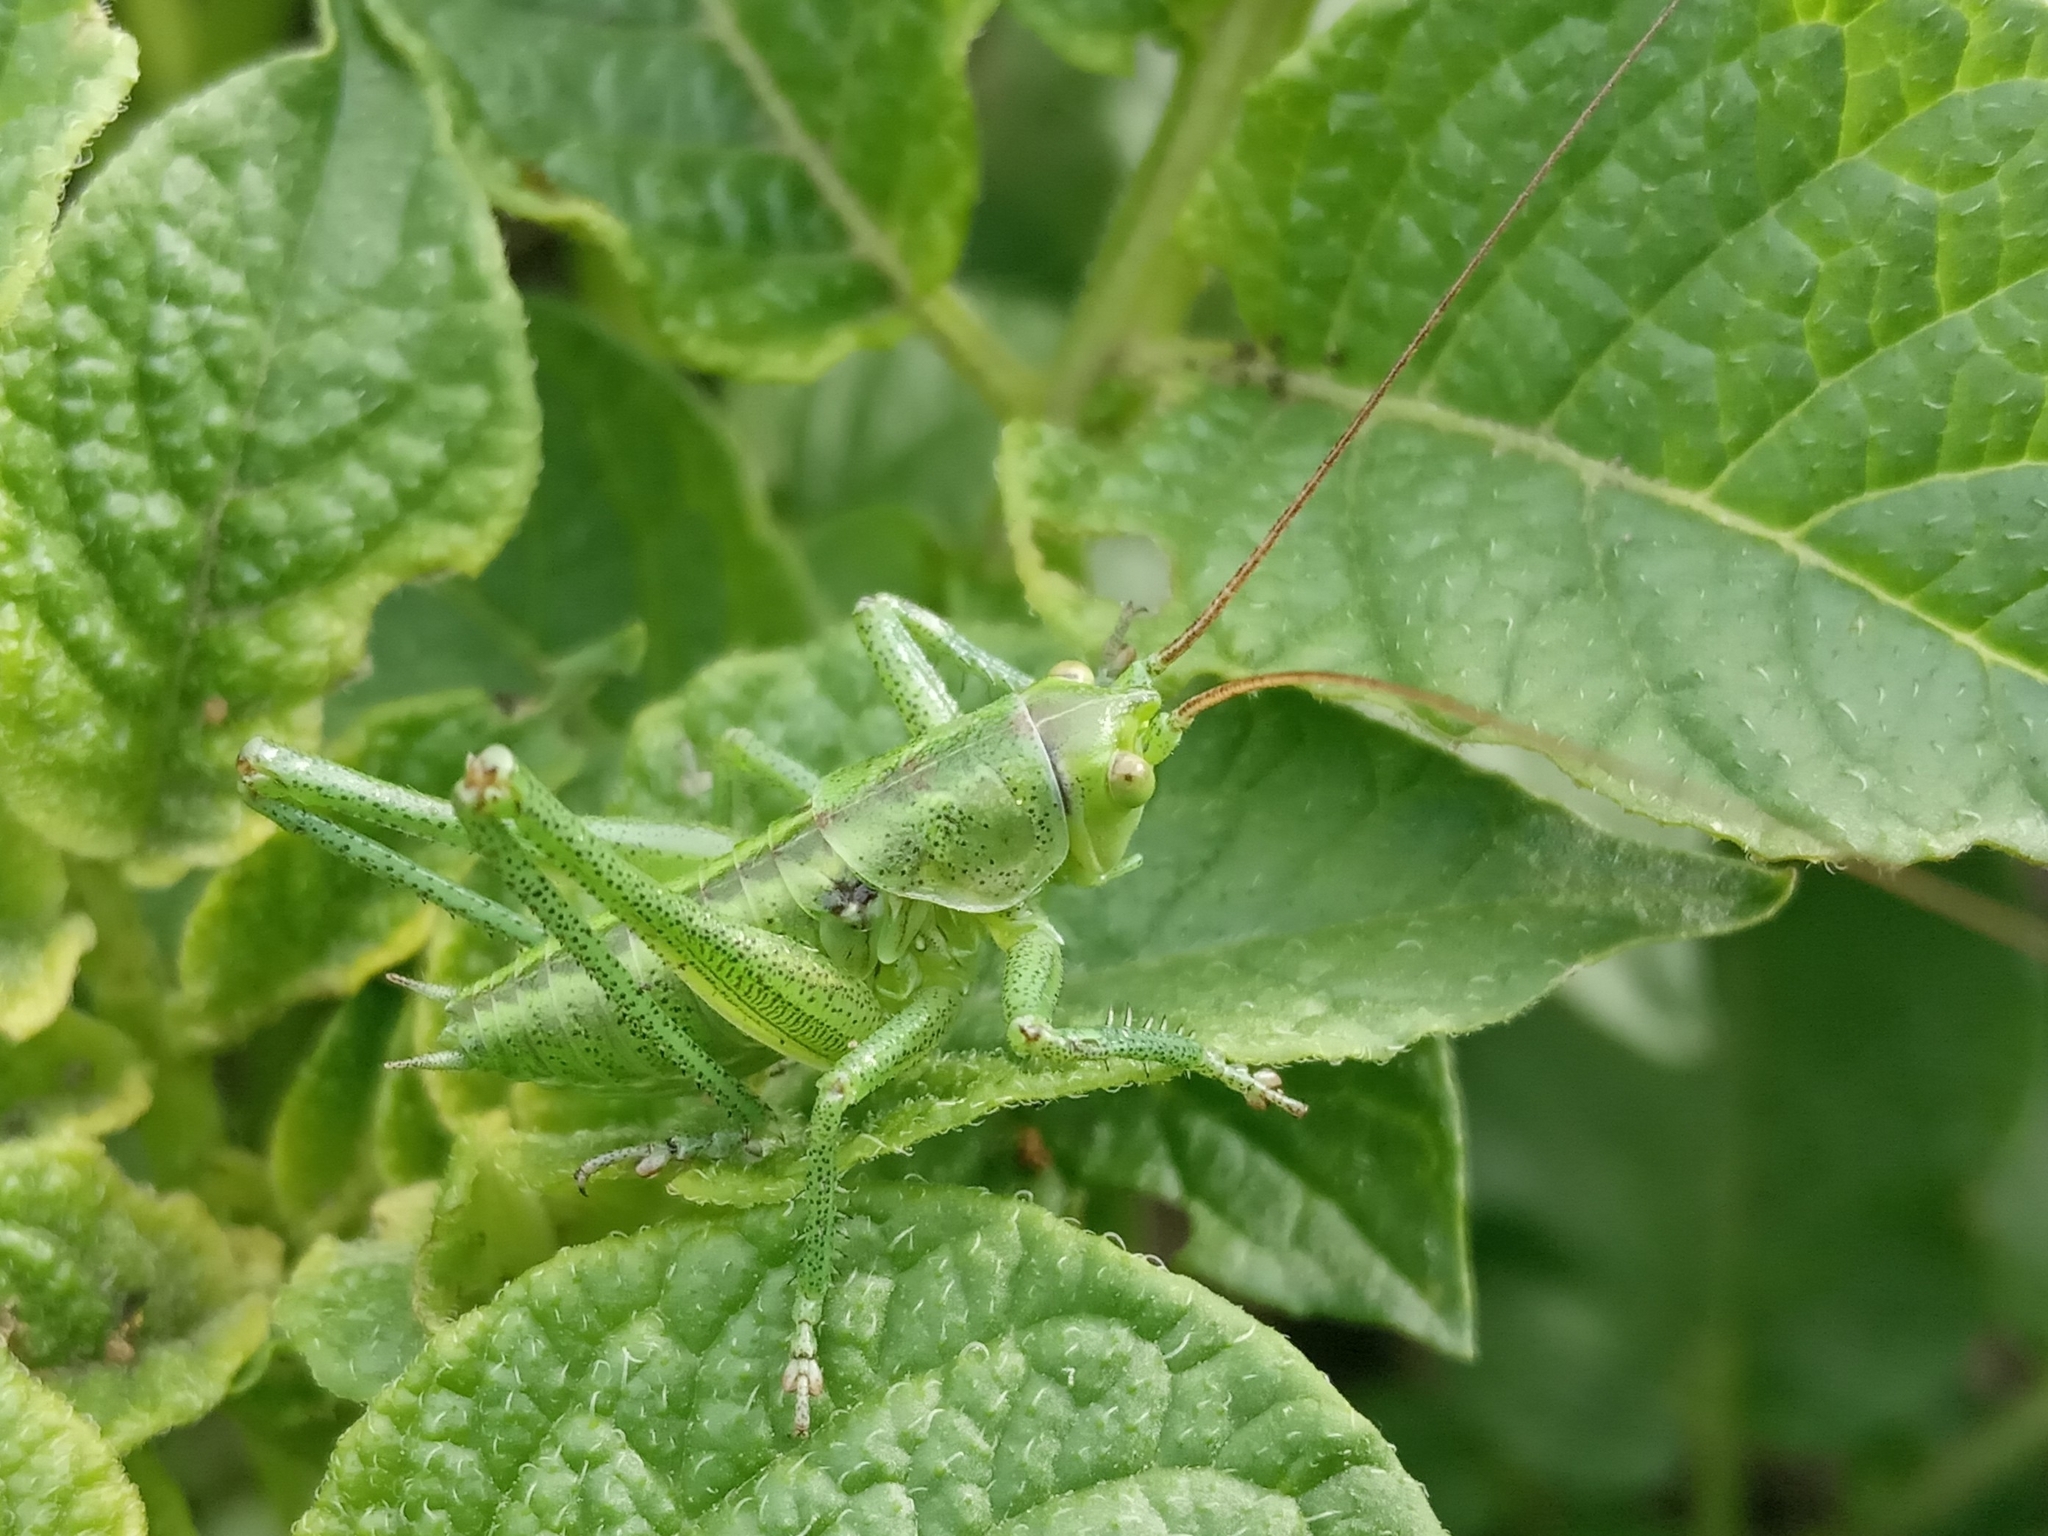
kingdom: Animalia
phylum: Arthropoda
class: Insecta
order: Orthoptera
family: Tettigoniidae
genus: Tettigonia
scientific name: Tettigonia viridissima
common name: Great green bush-cricket
